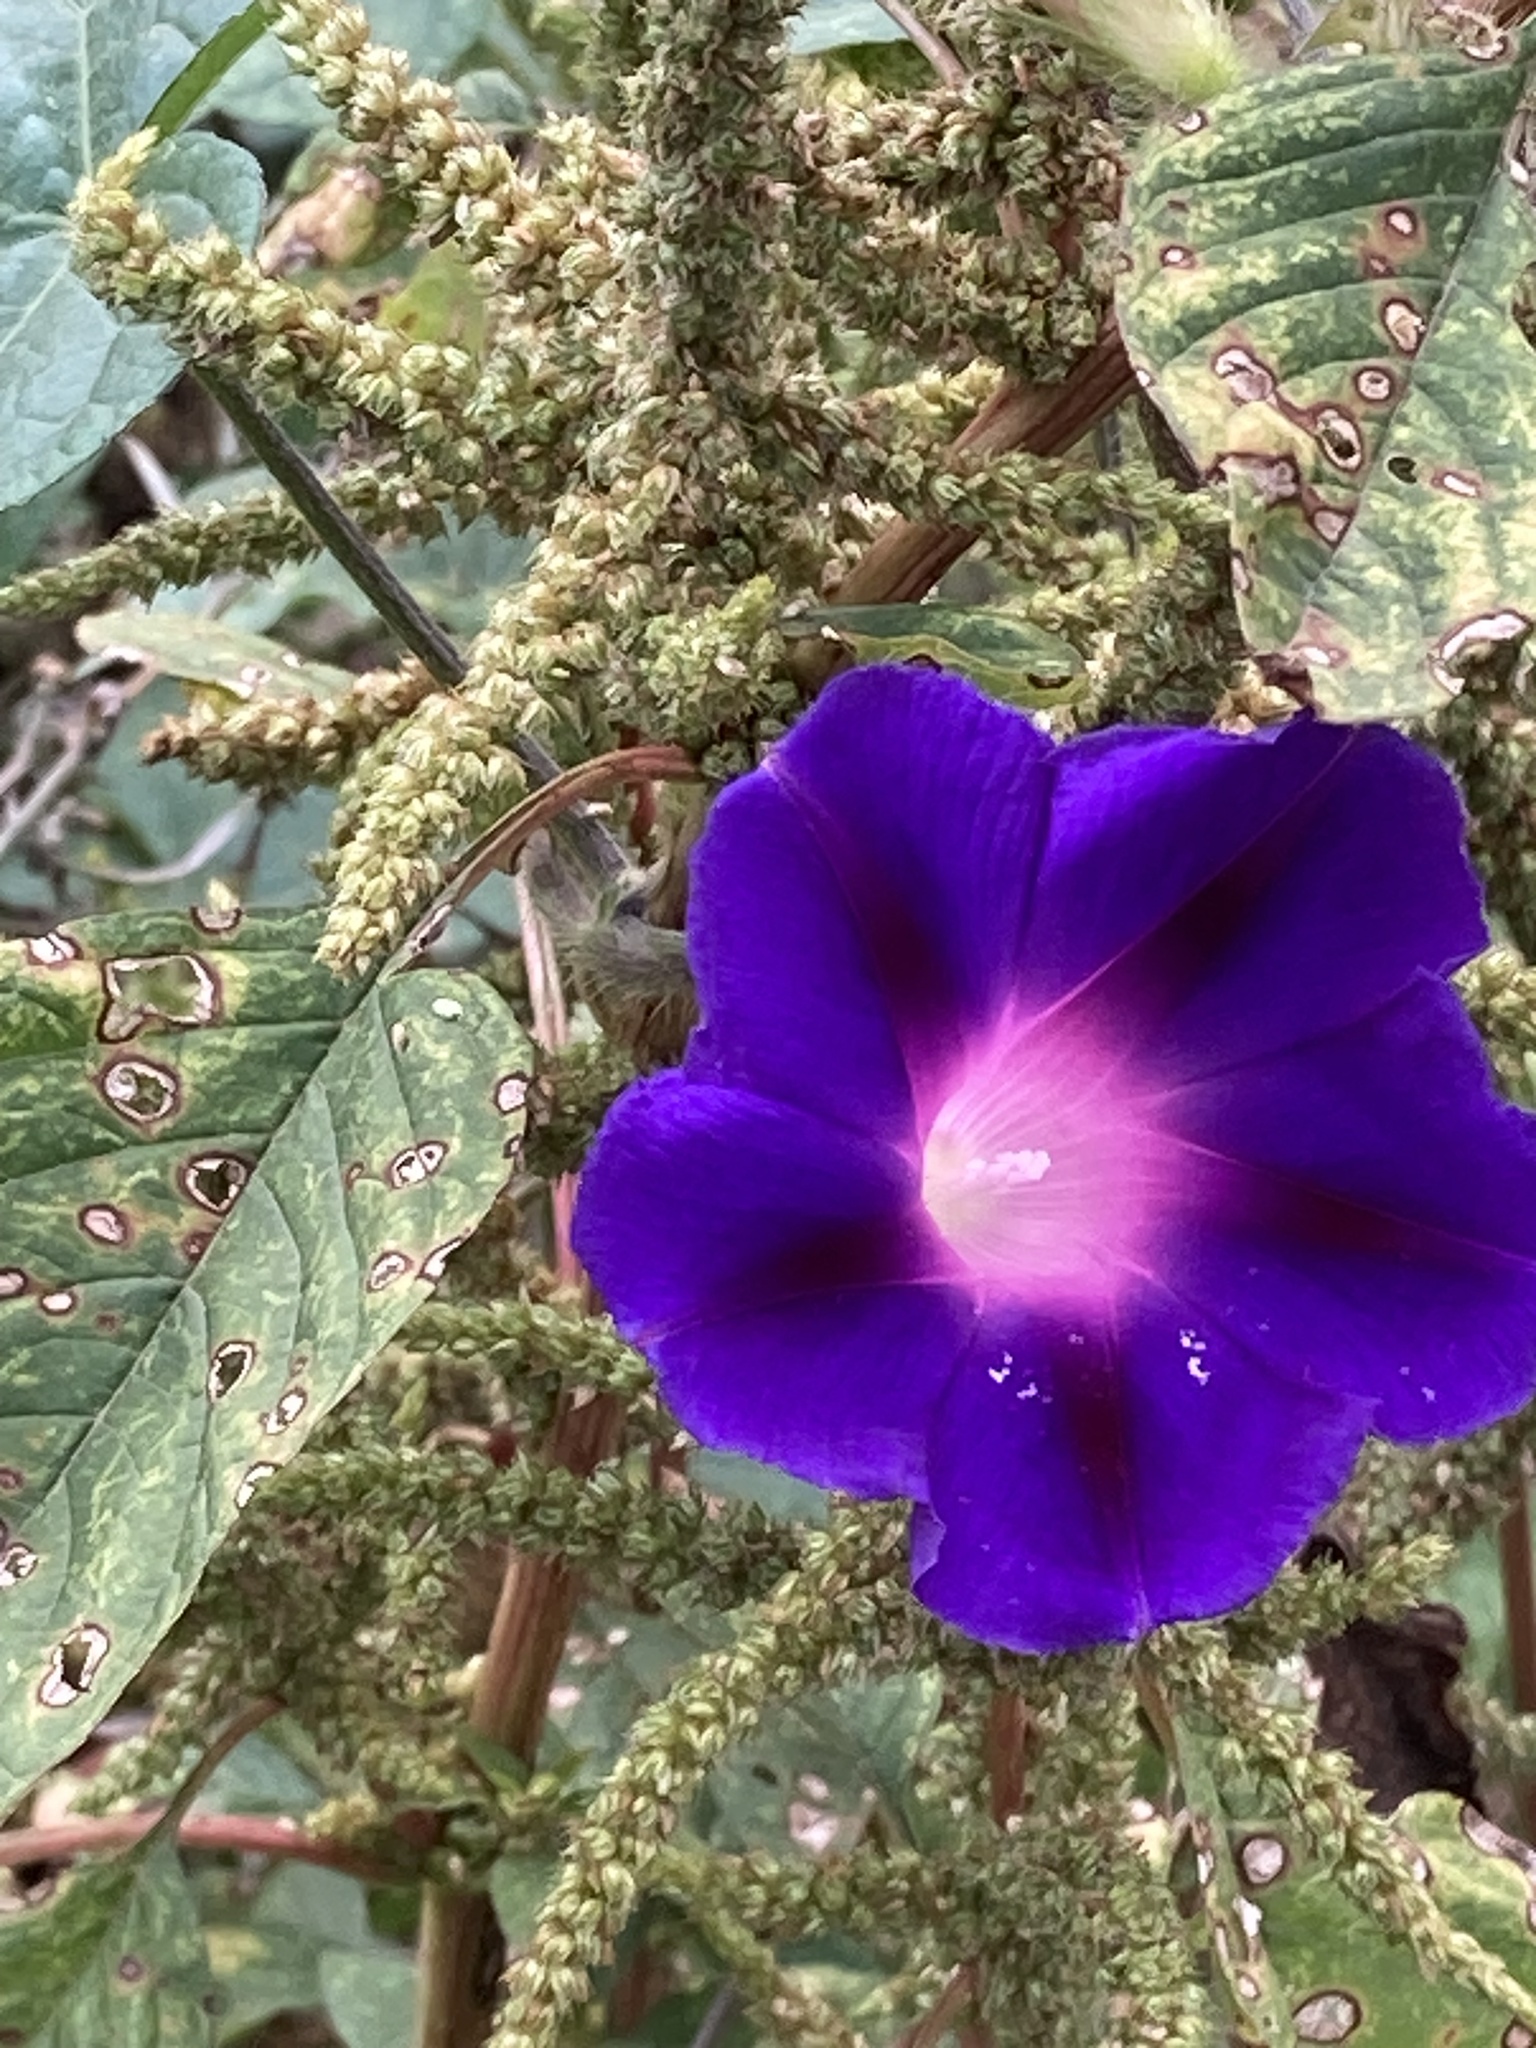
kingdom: Plantae
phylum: Tracheophyta
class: Magnoliopsida
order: Solanales
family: Convolvulaceae
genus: Ipomoea
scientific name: Ipomoea purpurea
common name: Common morning-glory
